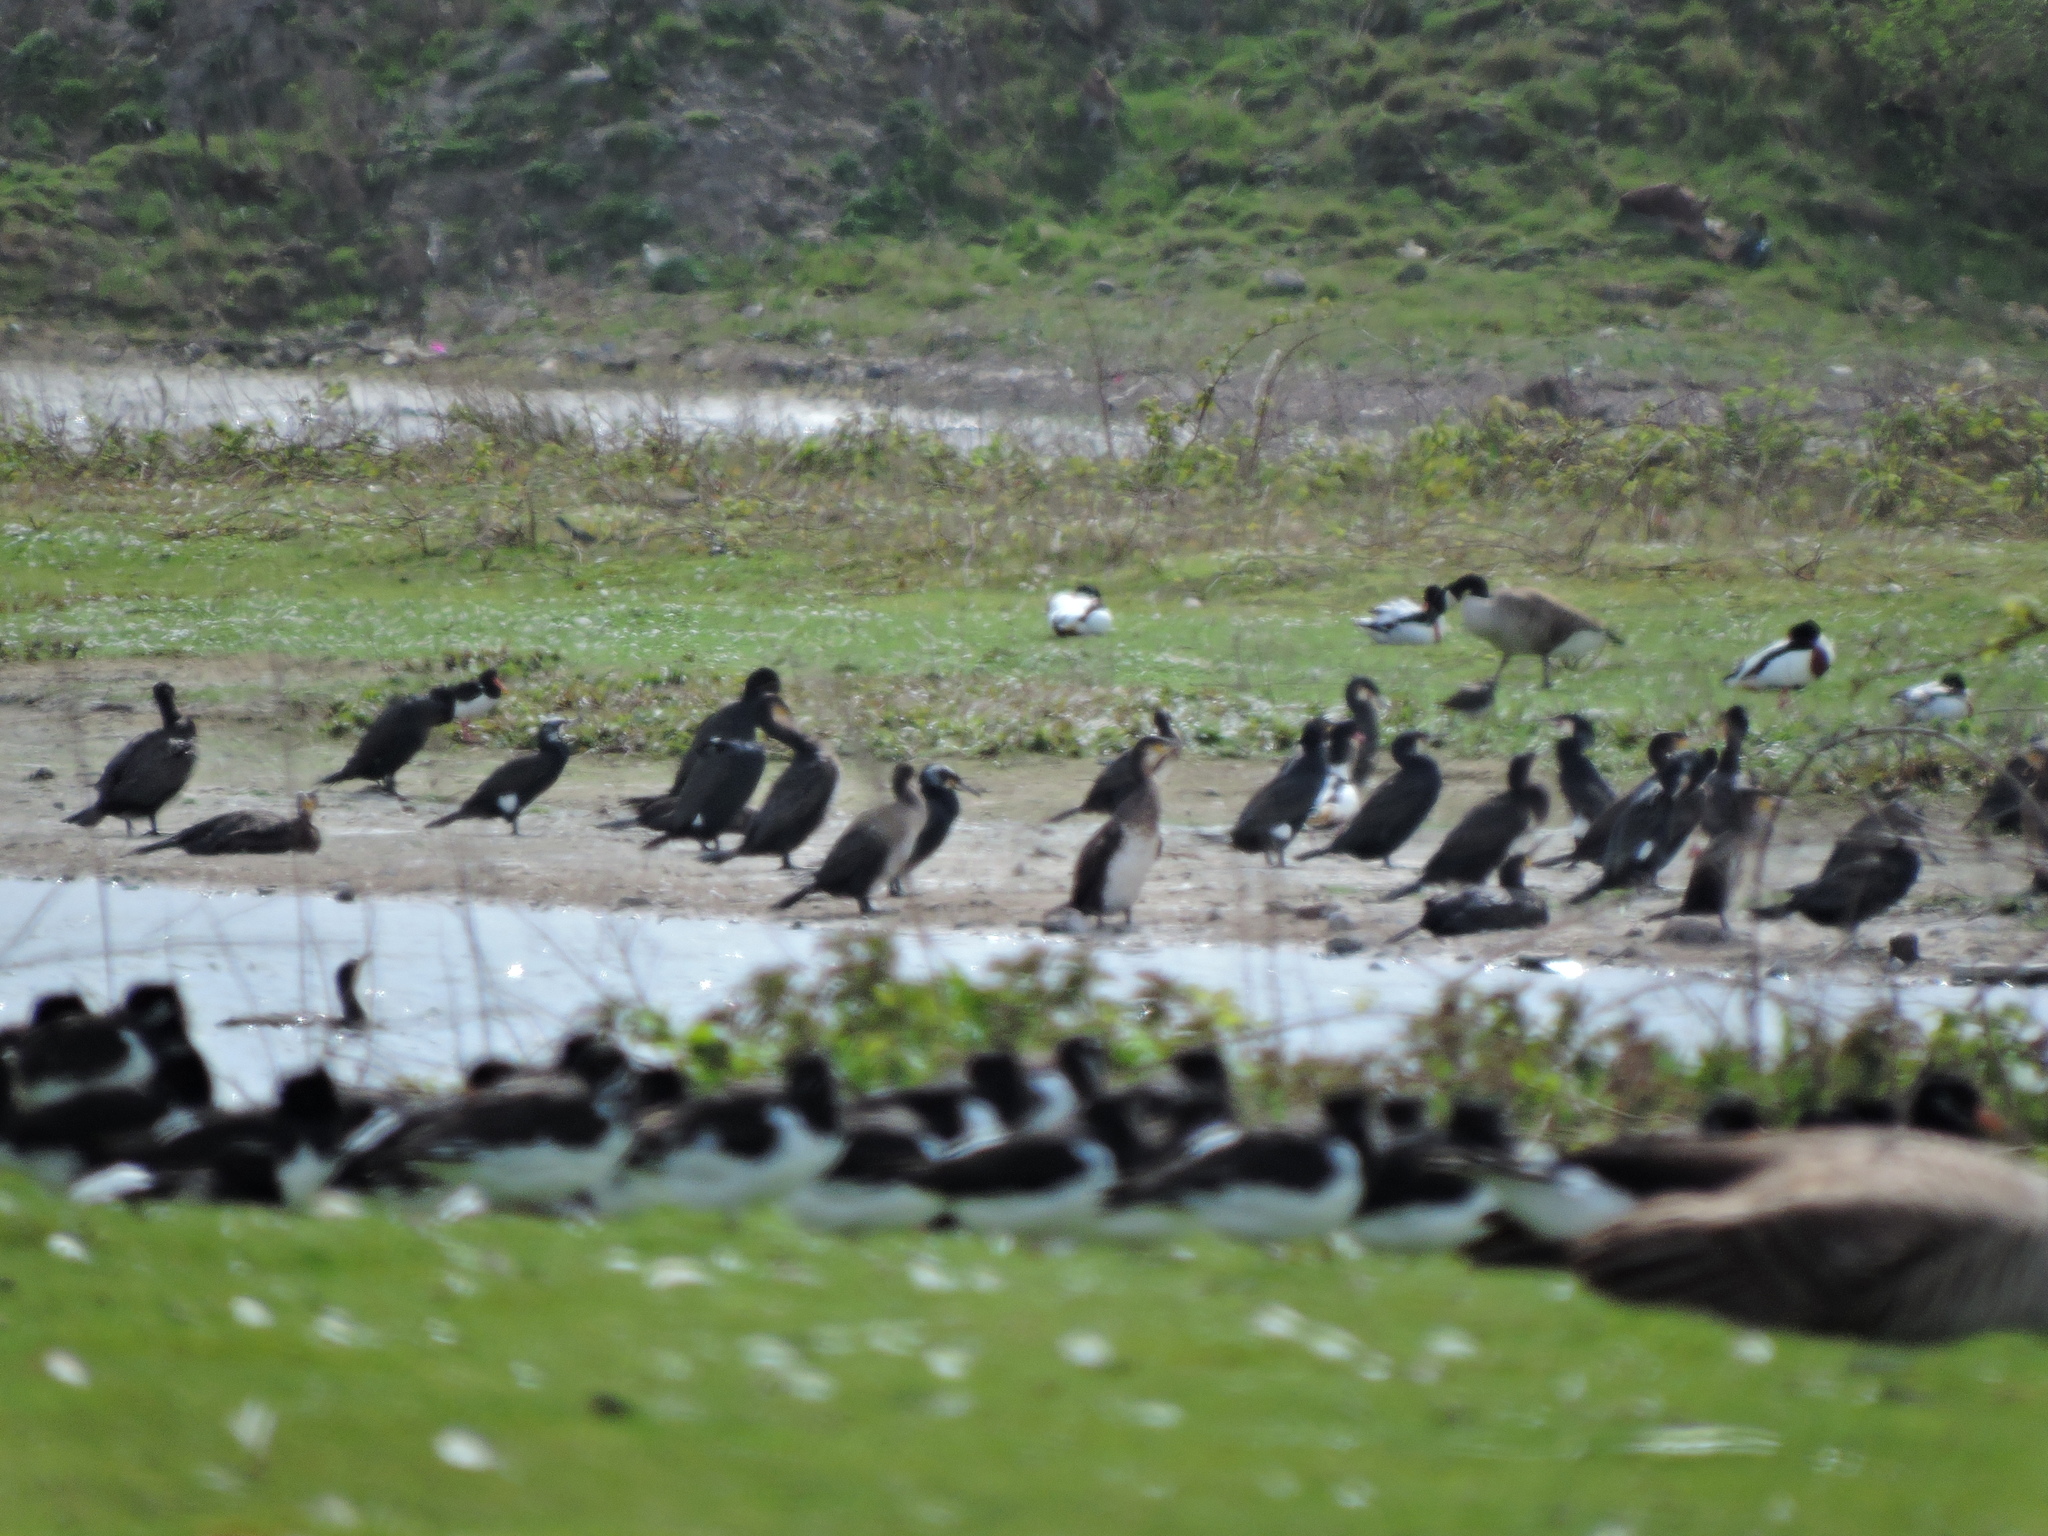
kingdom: Animalia
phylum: Chordata
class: Aves
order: Suliformes
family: Phalacrocoracidae
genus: Phalacrocorax
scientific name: Phalacrocorax carbo
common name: Great cormorant
